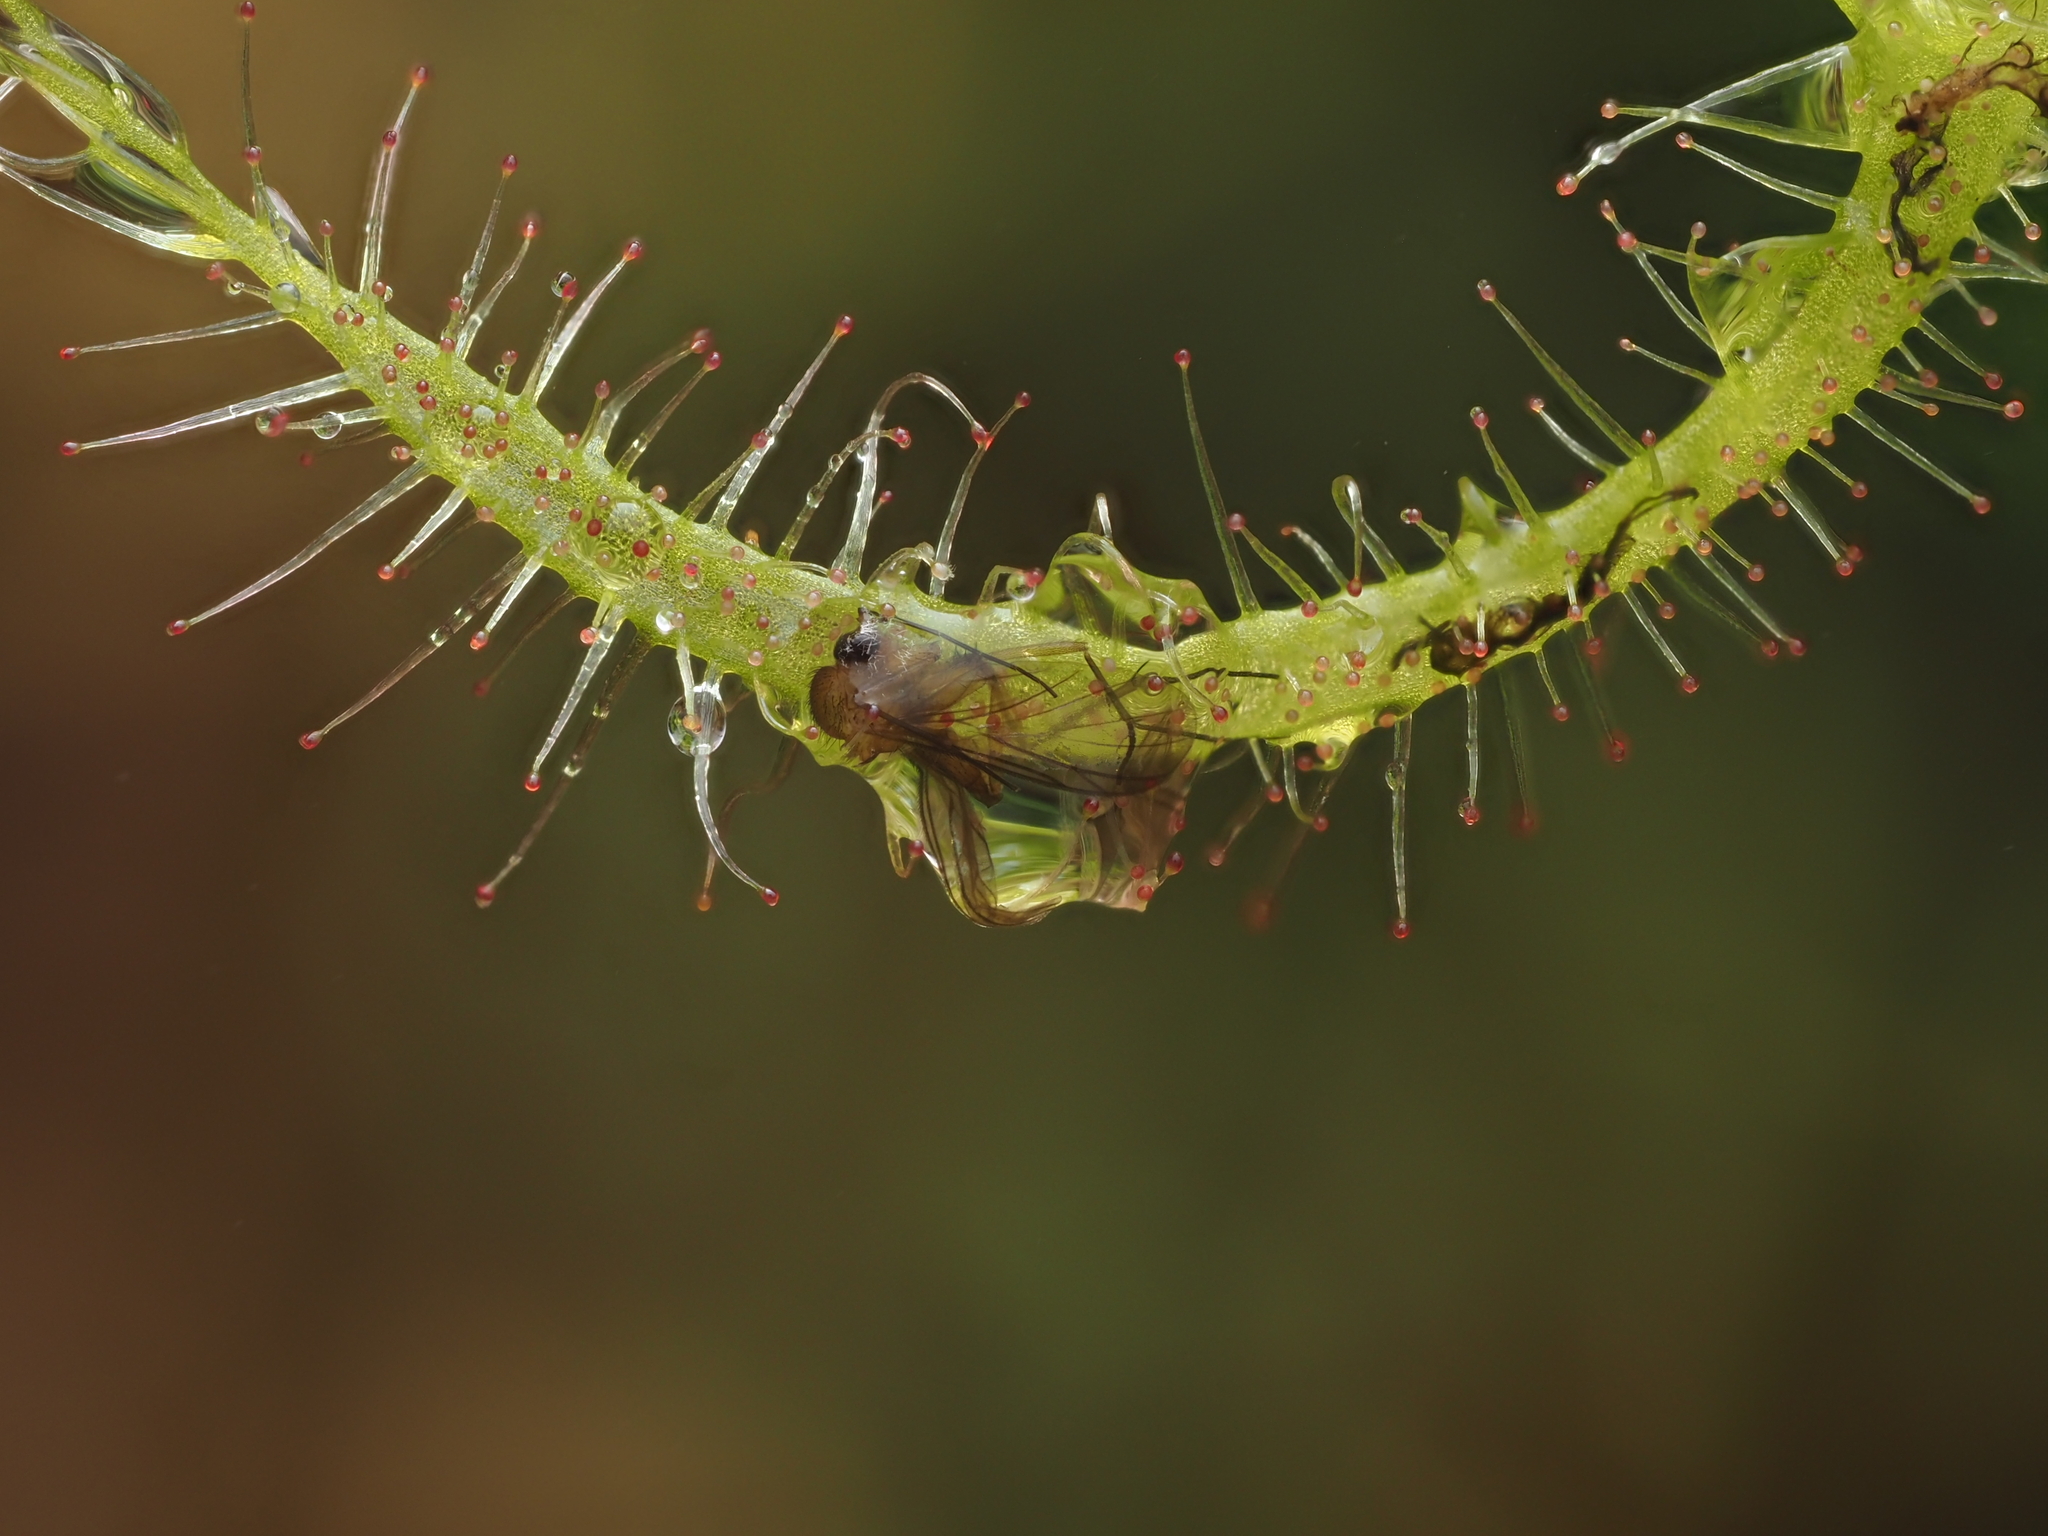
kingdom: Plantae
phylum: Tracheophyta
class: Magnoliopsida
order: Caryophyllales
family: Droseraceae
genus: Drosera
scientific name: Drosera binata
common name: Forked sundew
